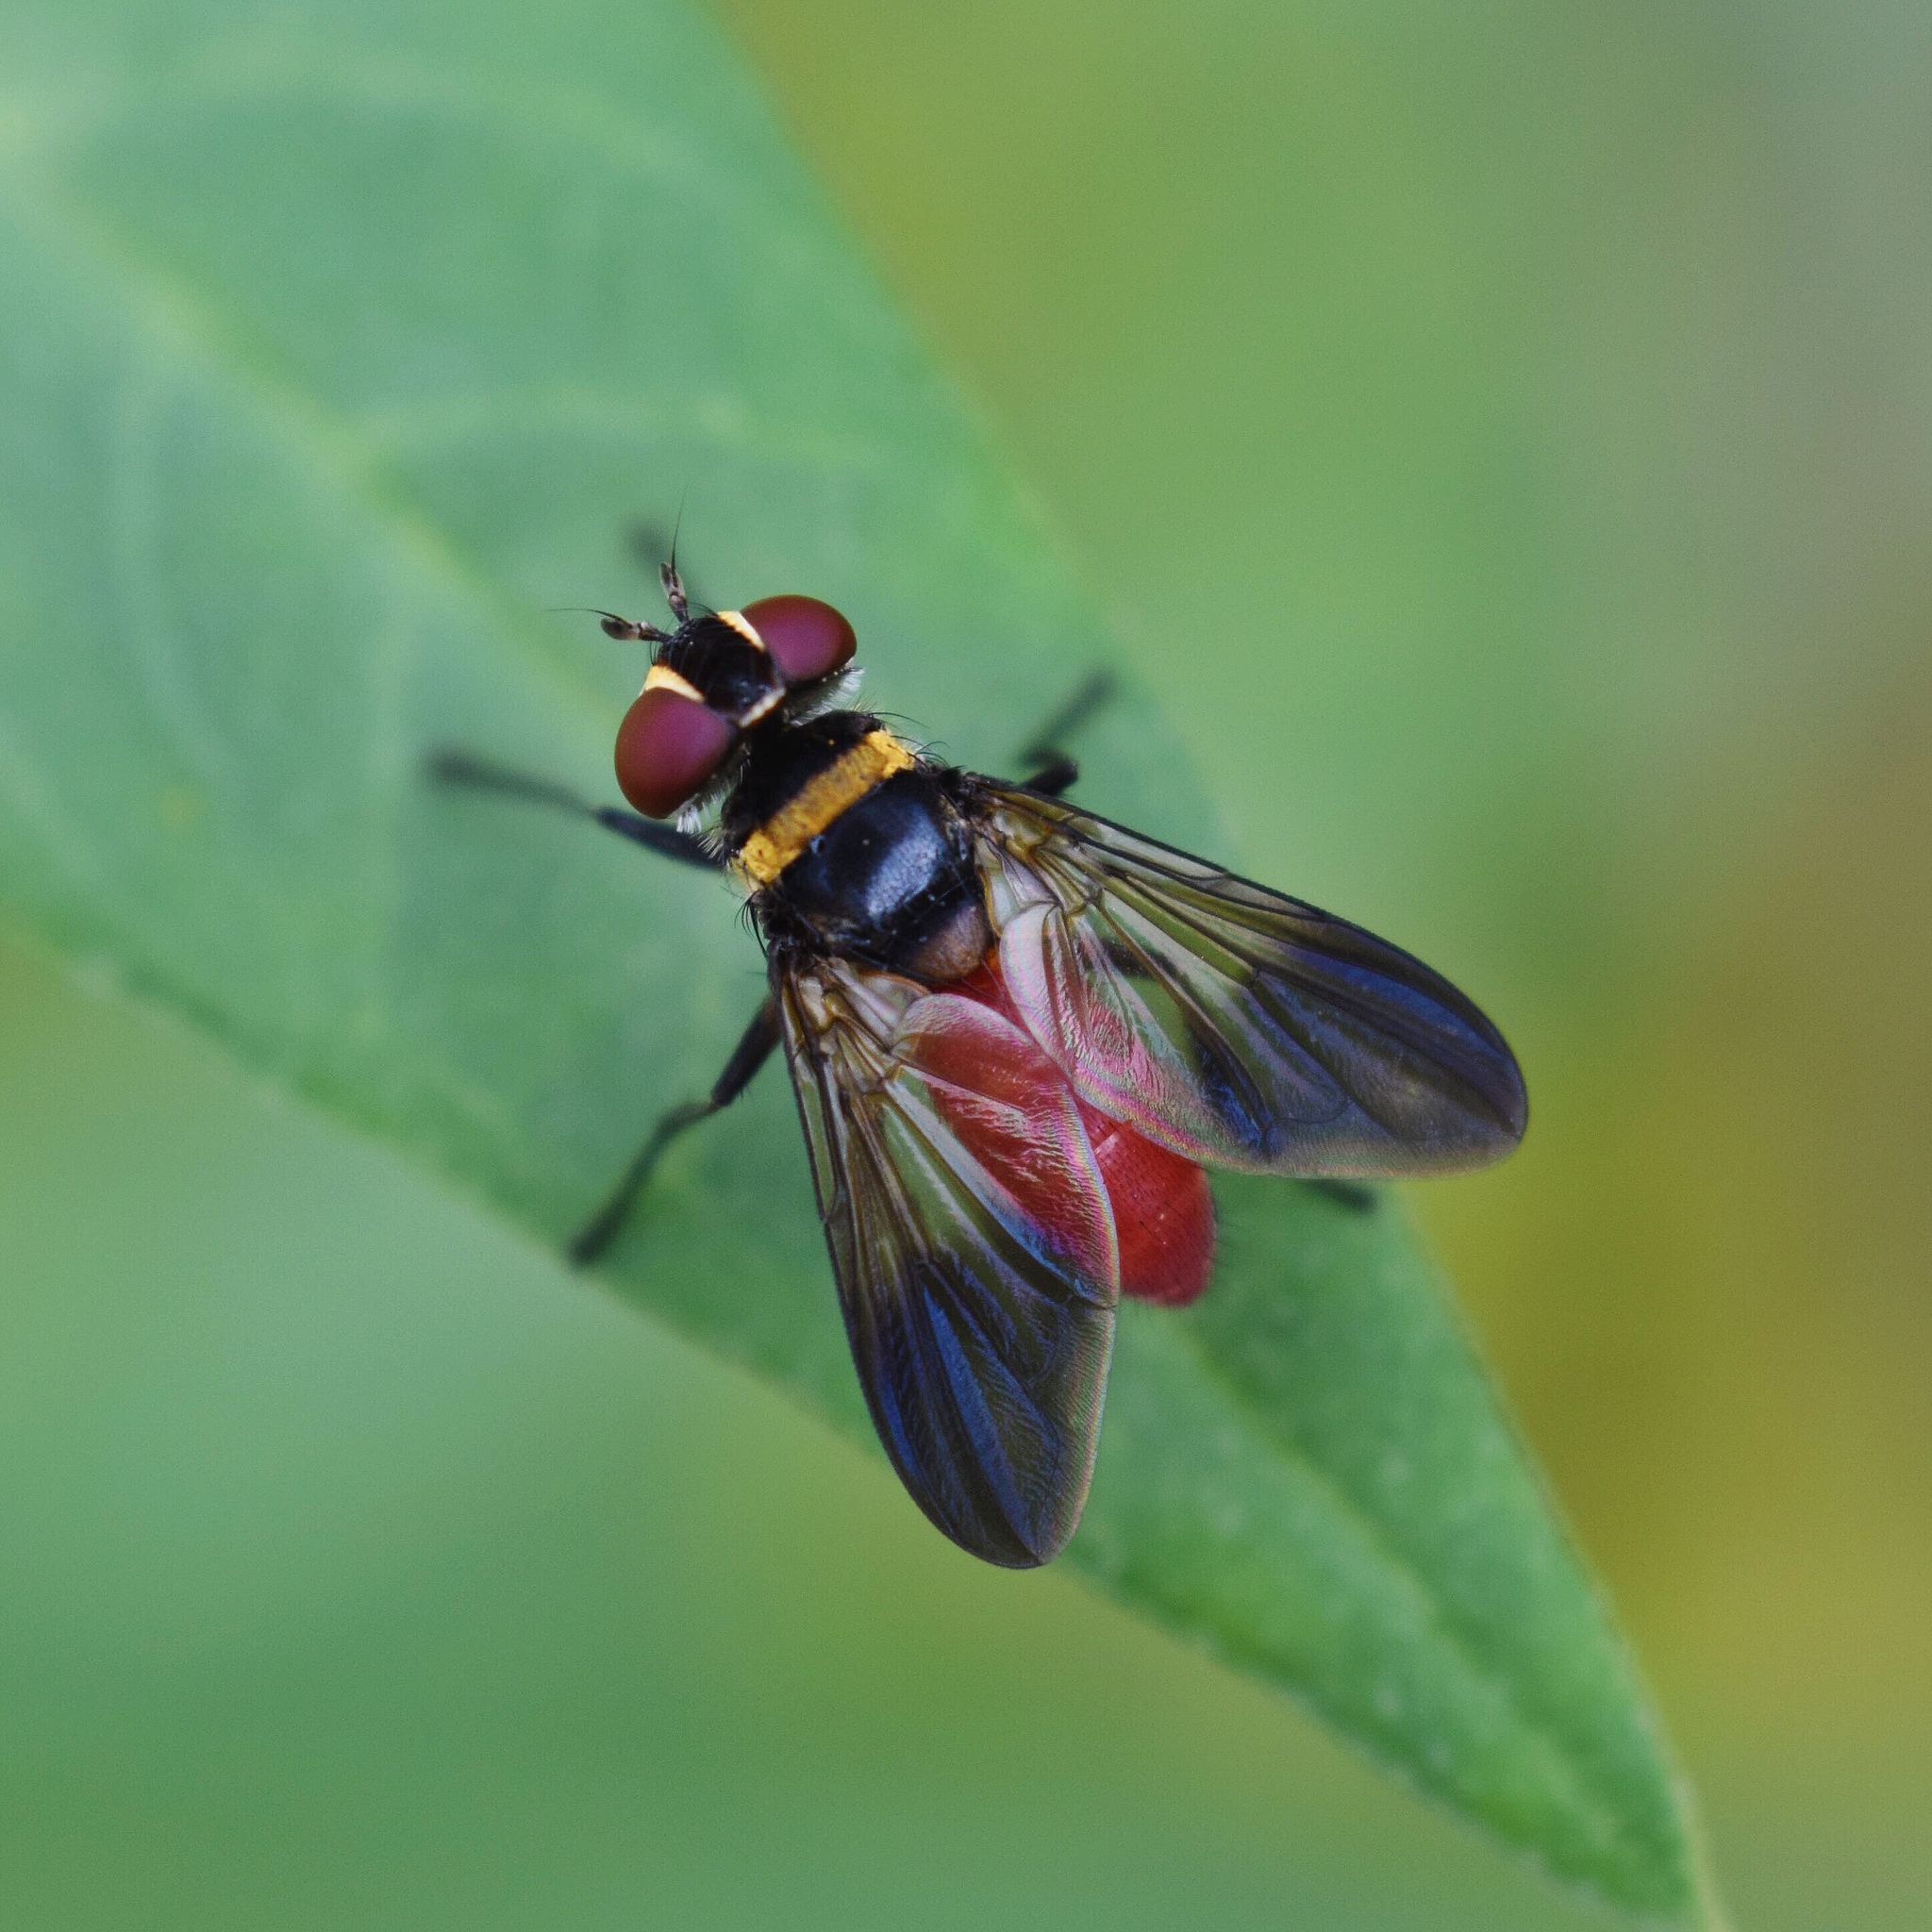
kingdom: Animalia
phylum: Arthropoda
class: Insecta
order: Diptera
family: Tachinidae
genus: Bogosia
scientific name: Bogosia
